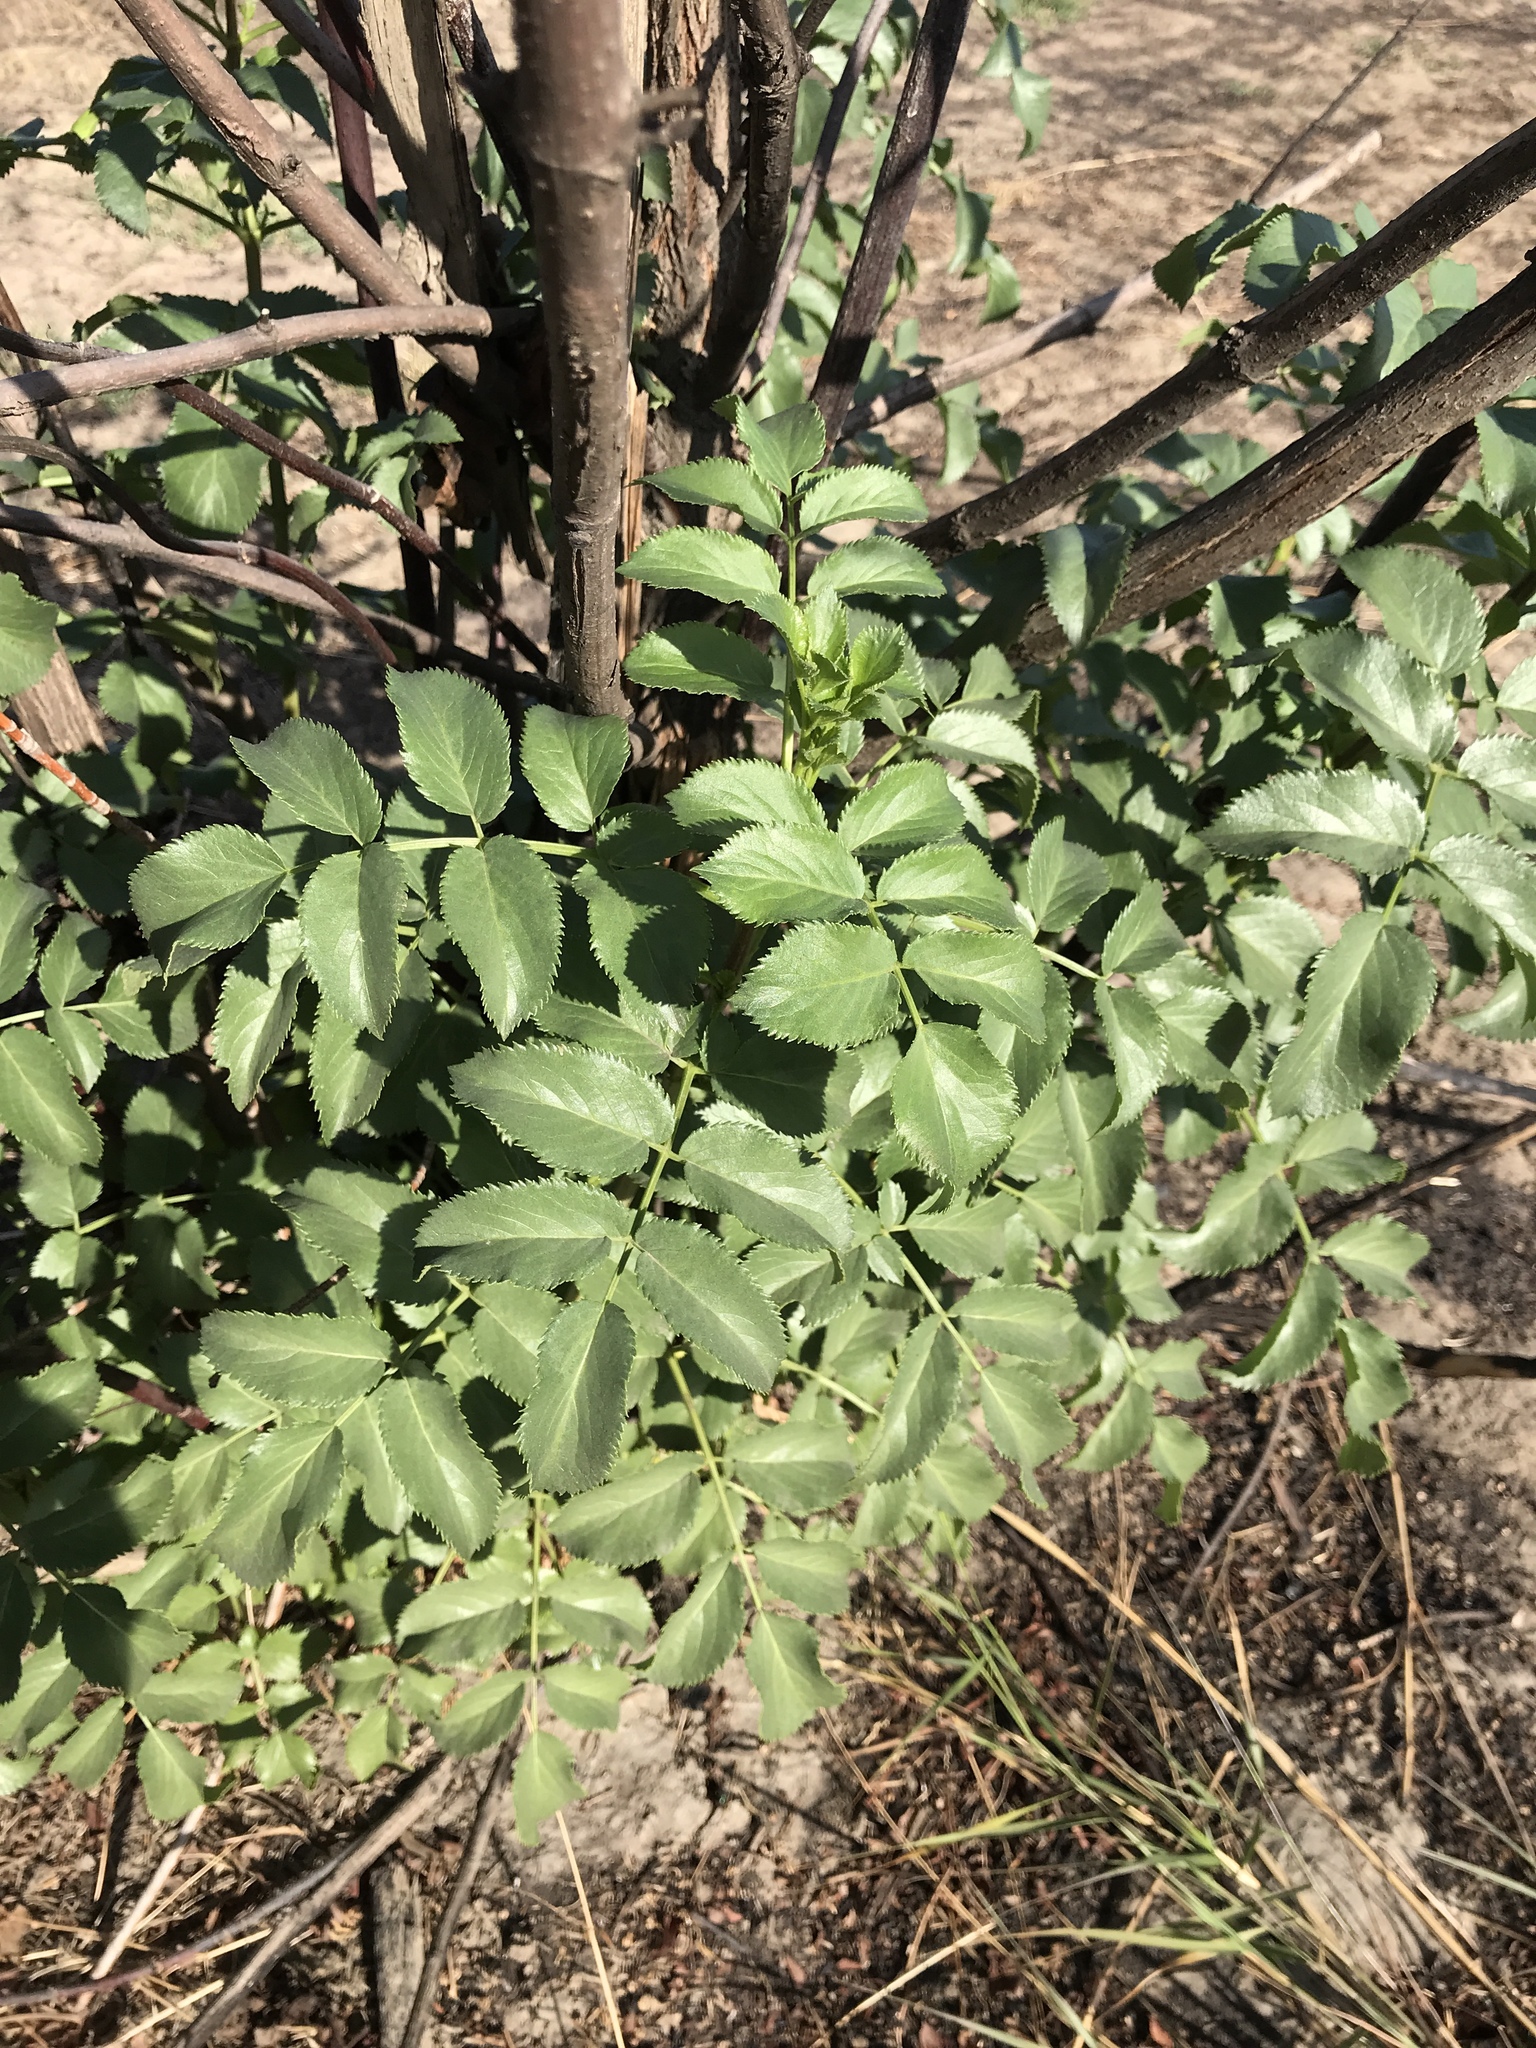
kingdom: Plantae
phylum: Tracheophyta
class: Magnoliopsida
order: Dipsacales
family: Viburnaceae
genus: Sambucus
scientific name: Sambucus cerulea
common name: Blue elder
